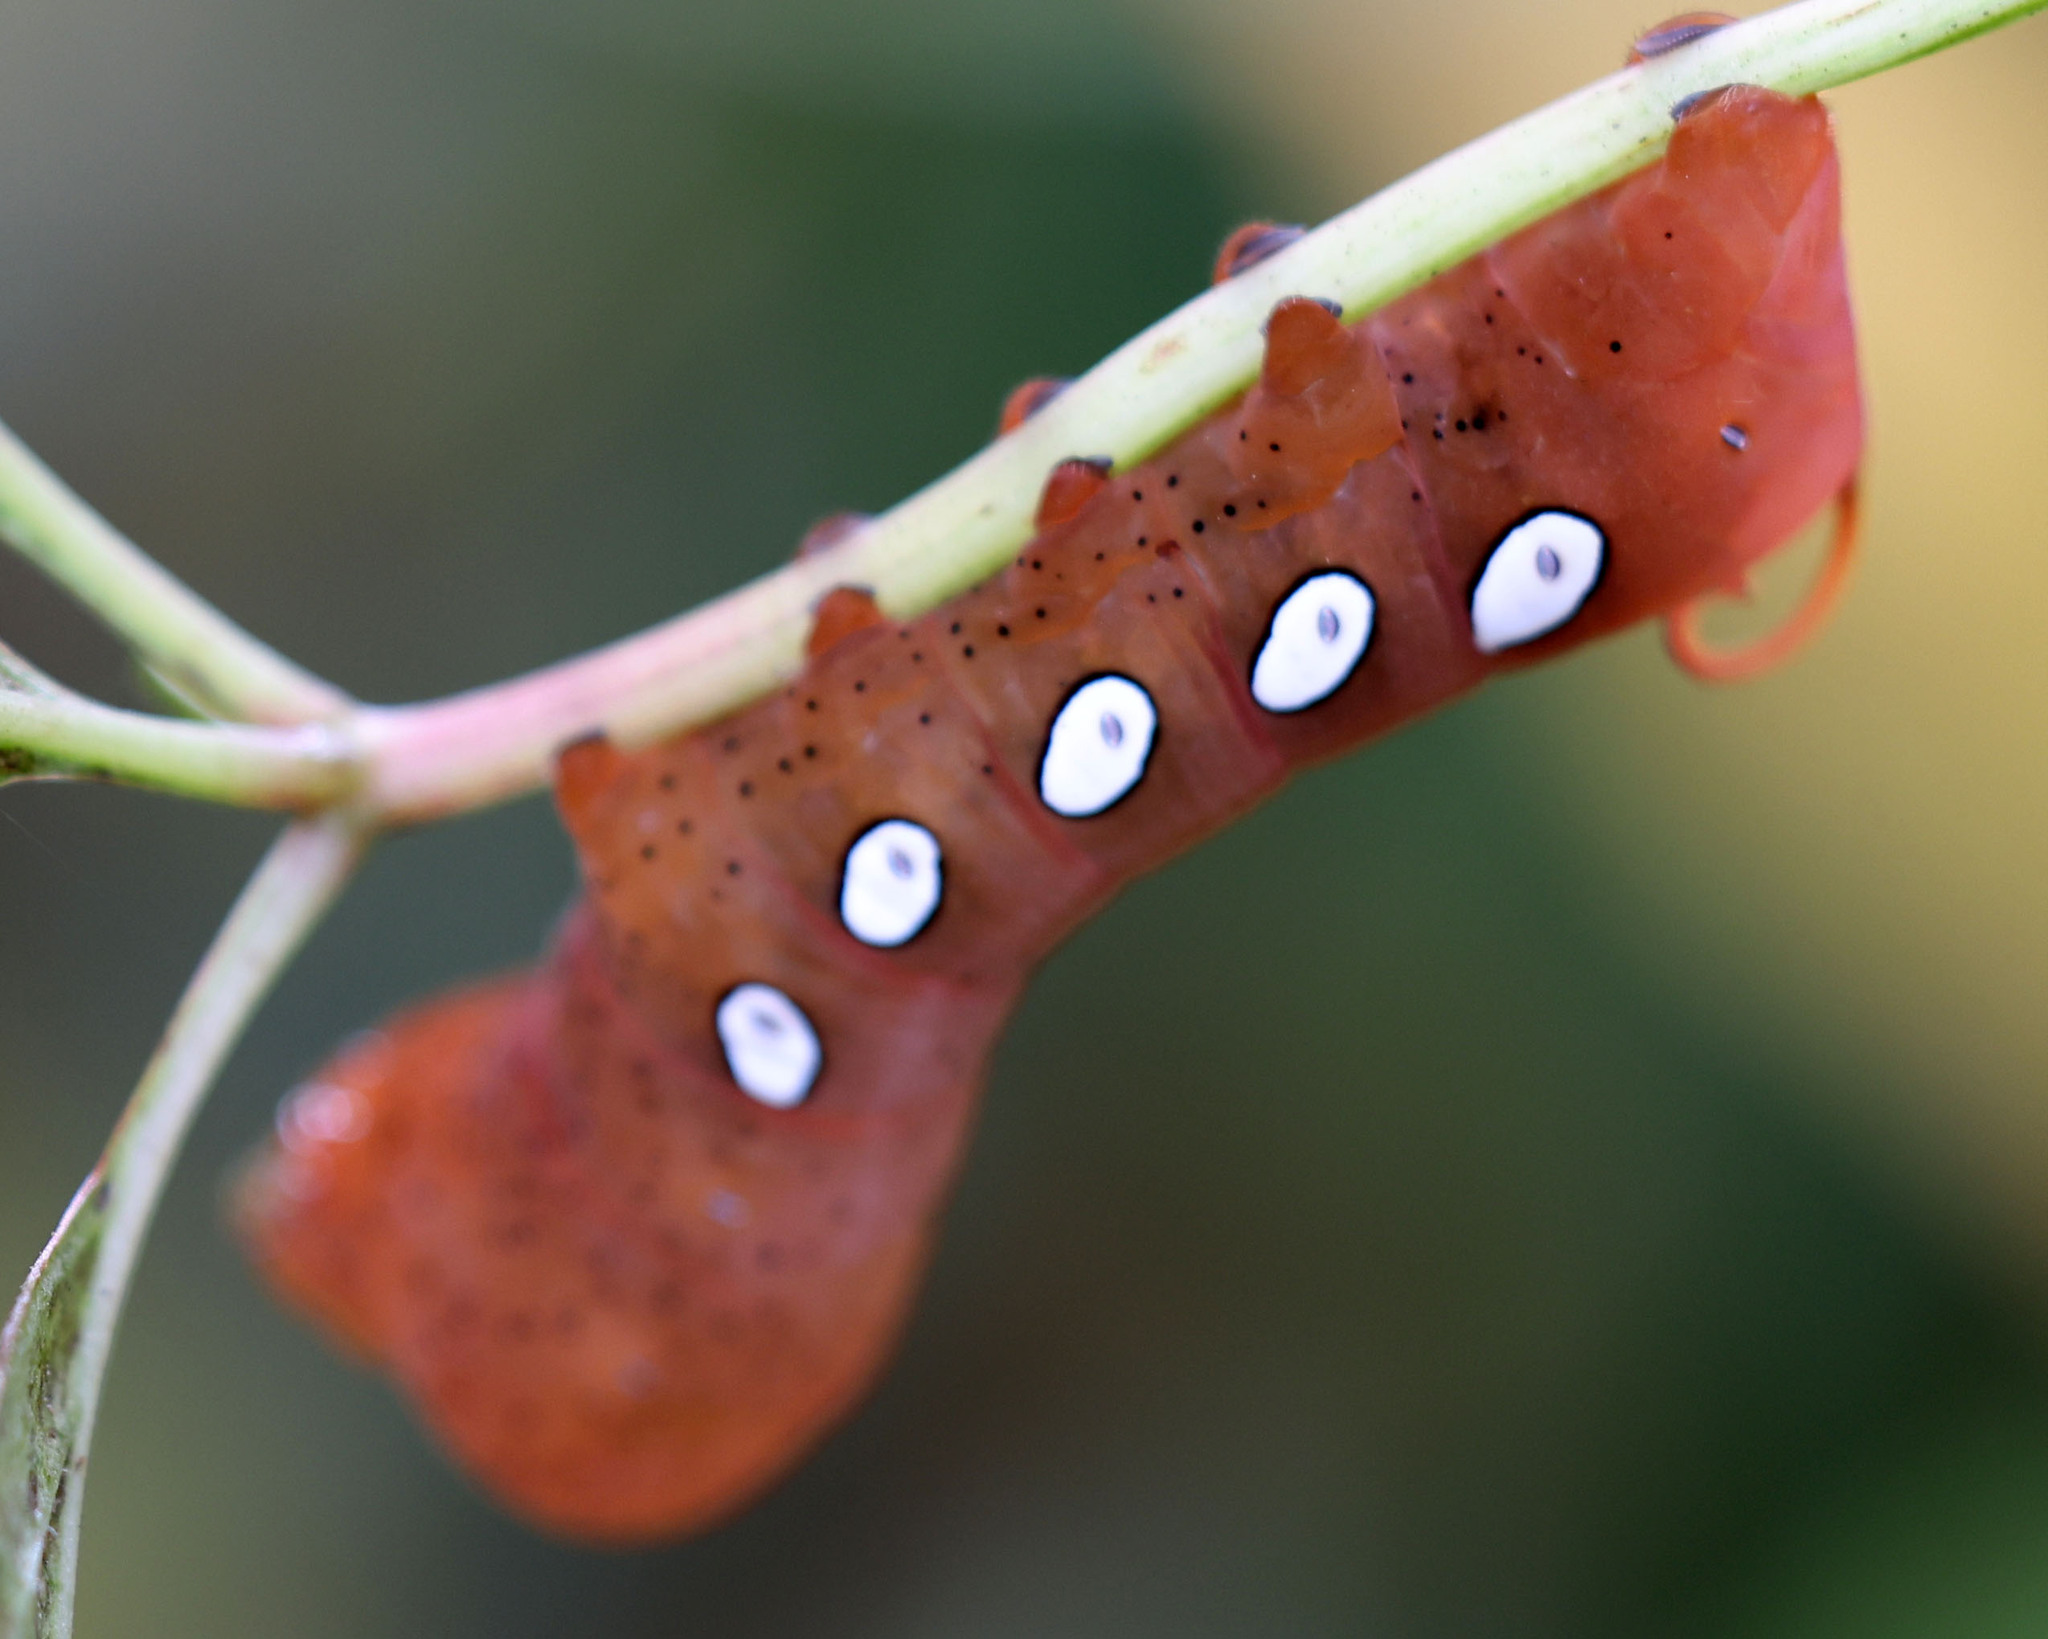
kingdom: Animalia
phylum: Arthropoda
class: Insecta
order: Lepidoptera
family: Sphingidae
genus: Eumorpha
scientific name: Eumorpha pandorus
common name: Pandora sphinx
